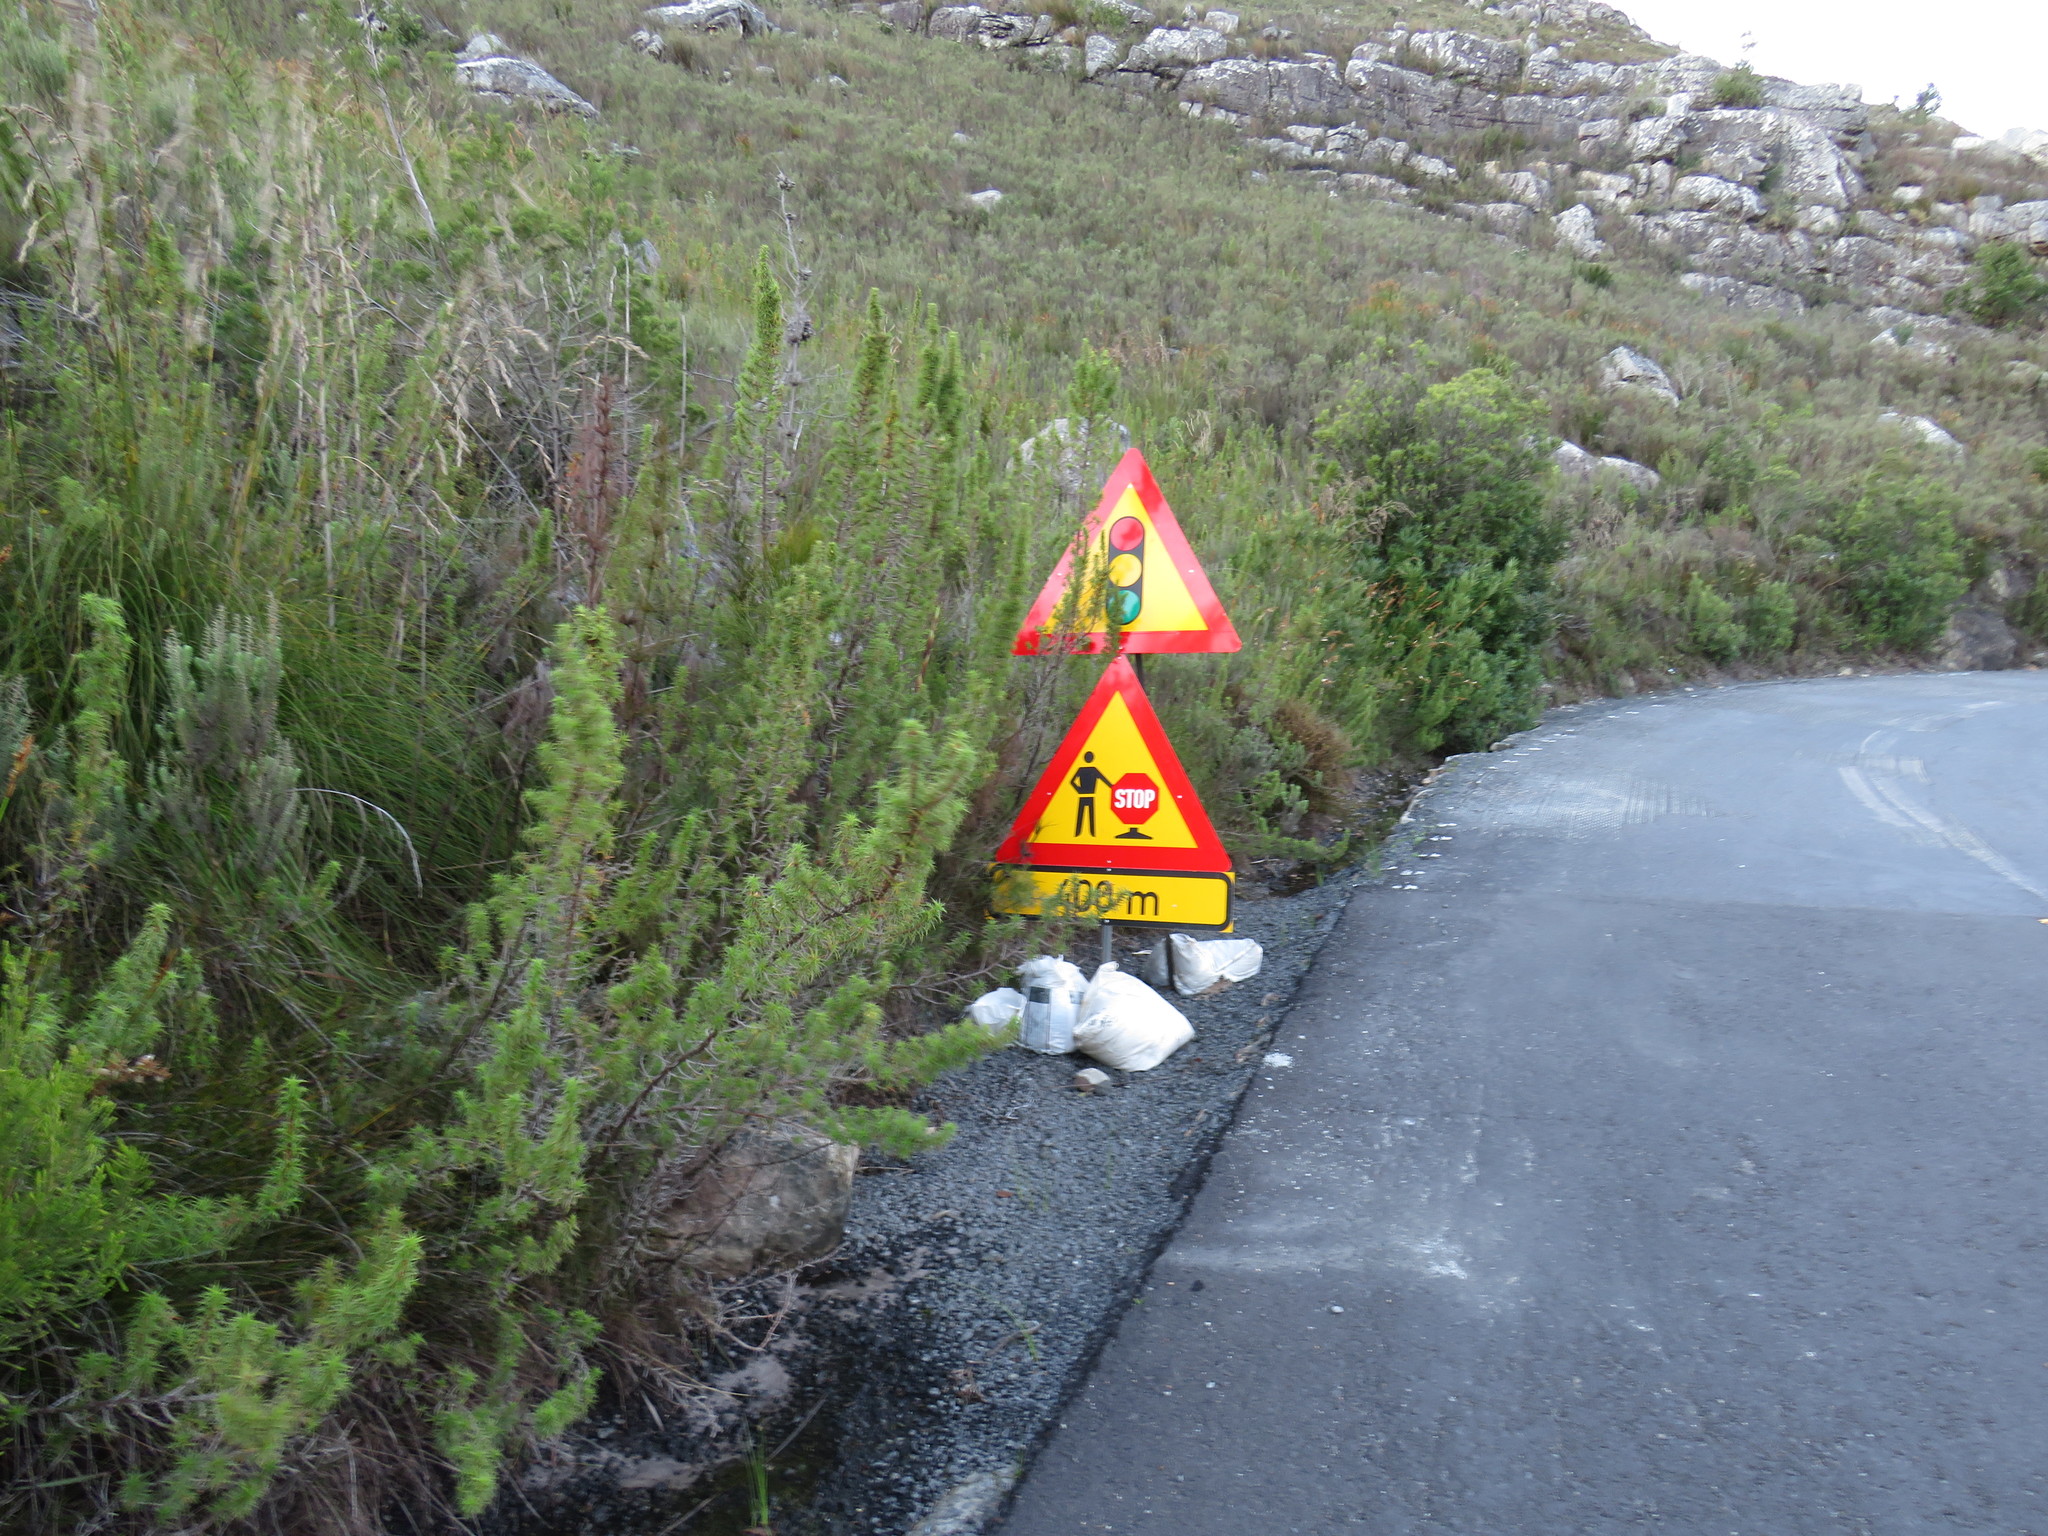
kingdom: Plantae
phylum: Tracheophyta
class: Magnoliopsida
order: Rosales
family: Rosaceae
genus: Cliffortia
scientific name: Cliffortia dregeana
